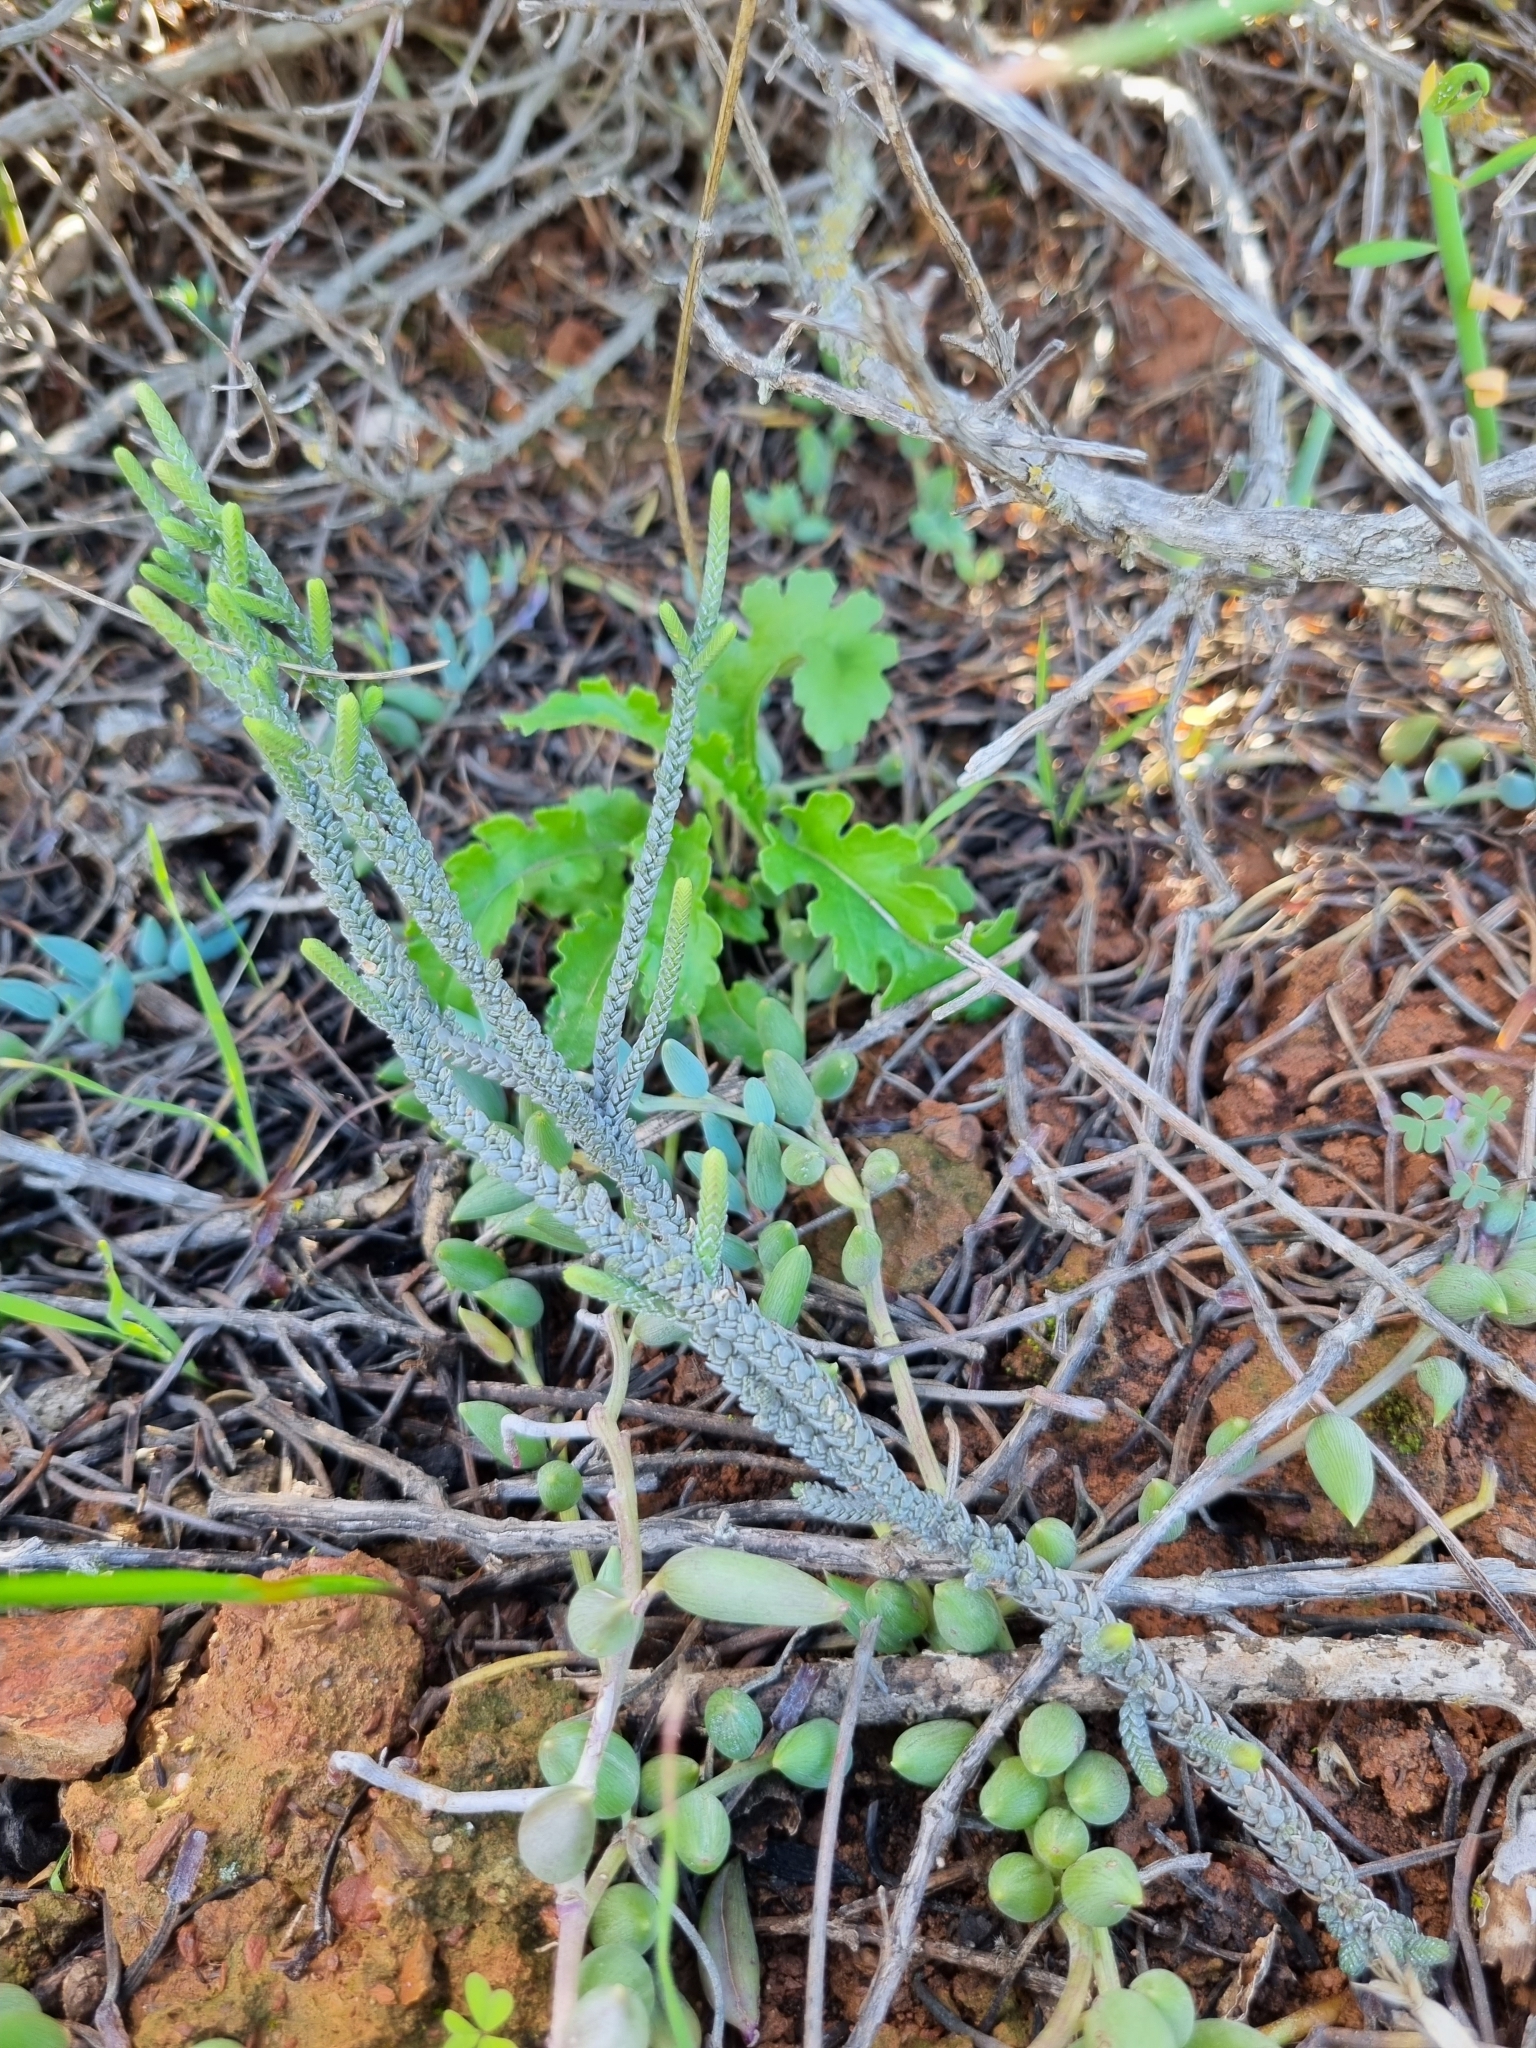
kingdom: Plantae
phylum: Tracheophyta
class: Magnoliopsida
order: Saxifragales
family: Crassulaceae
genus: Crassula
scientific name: Crassula muscosa
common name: Toy-cypress
